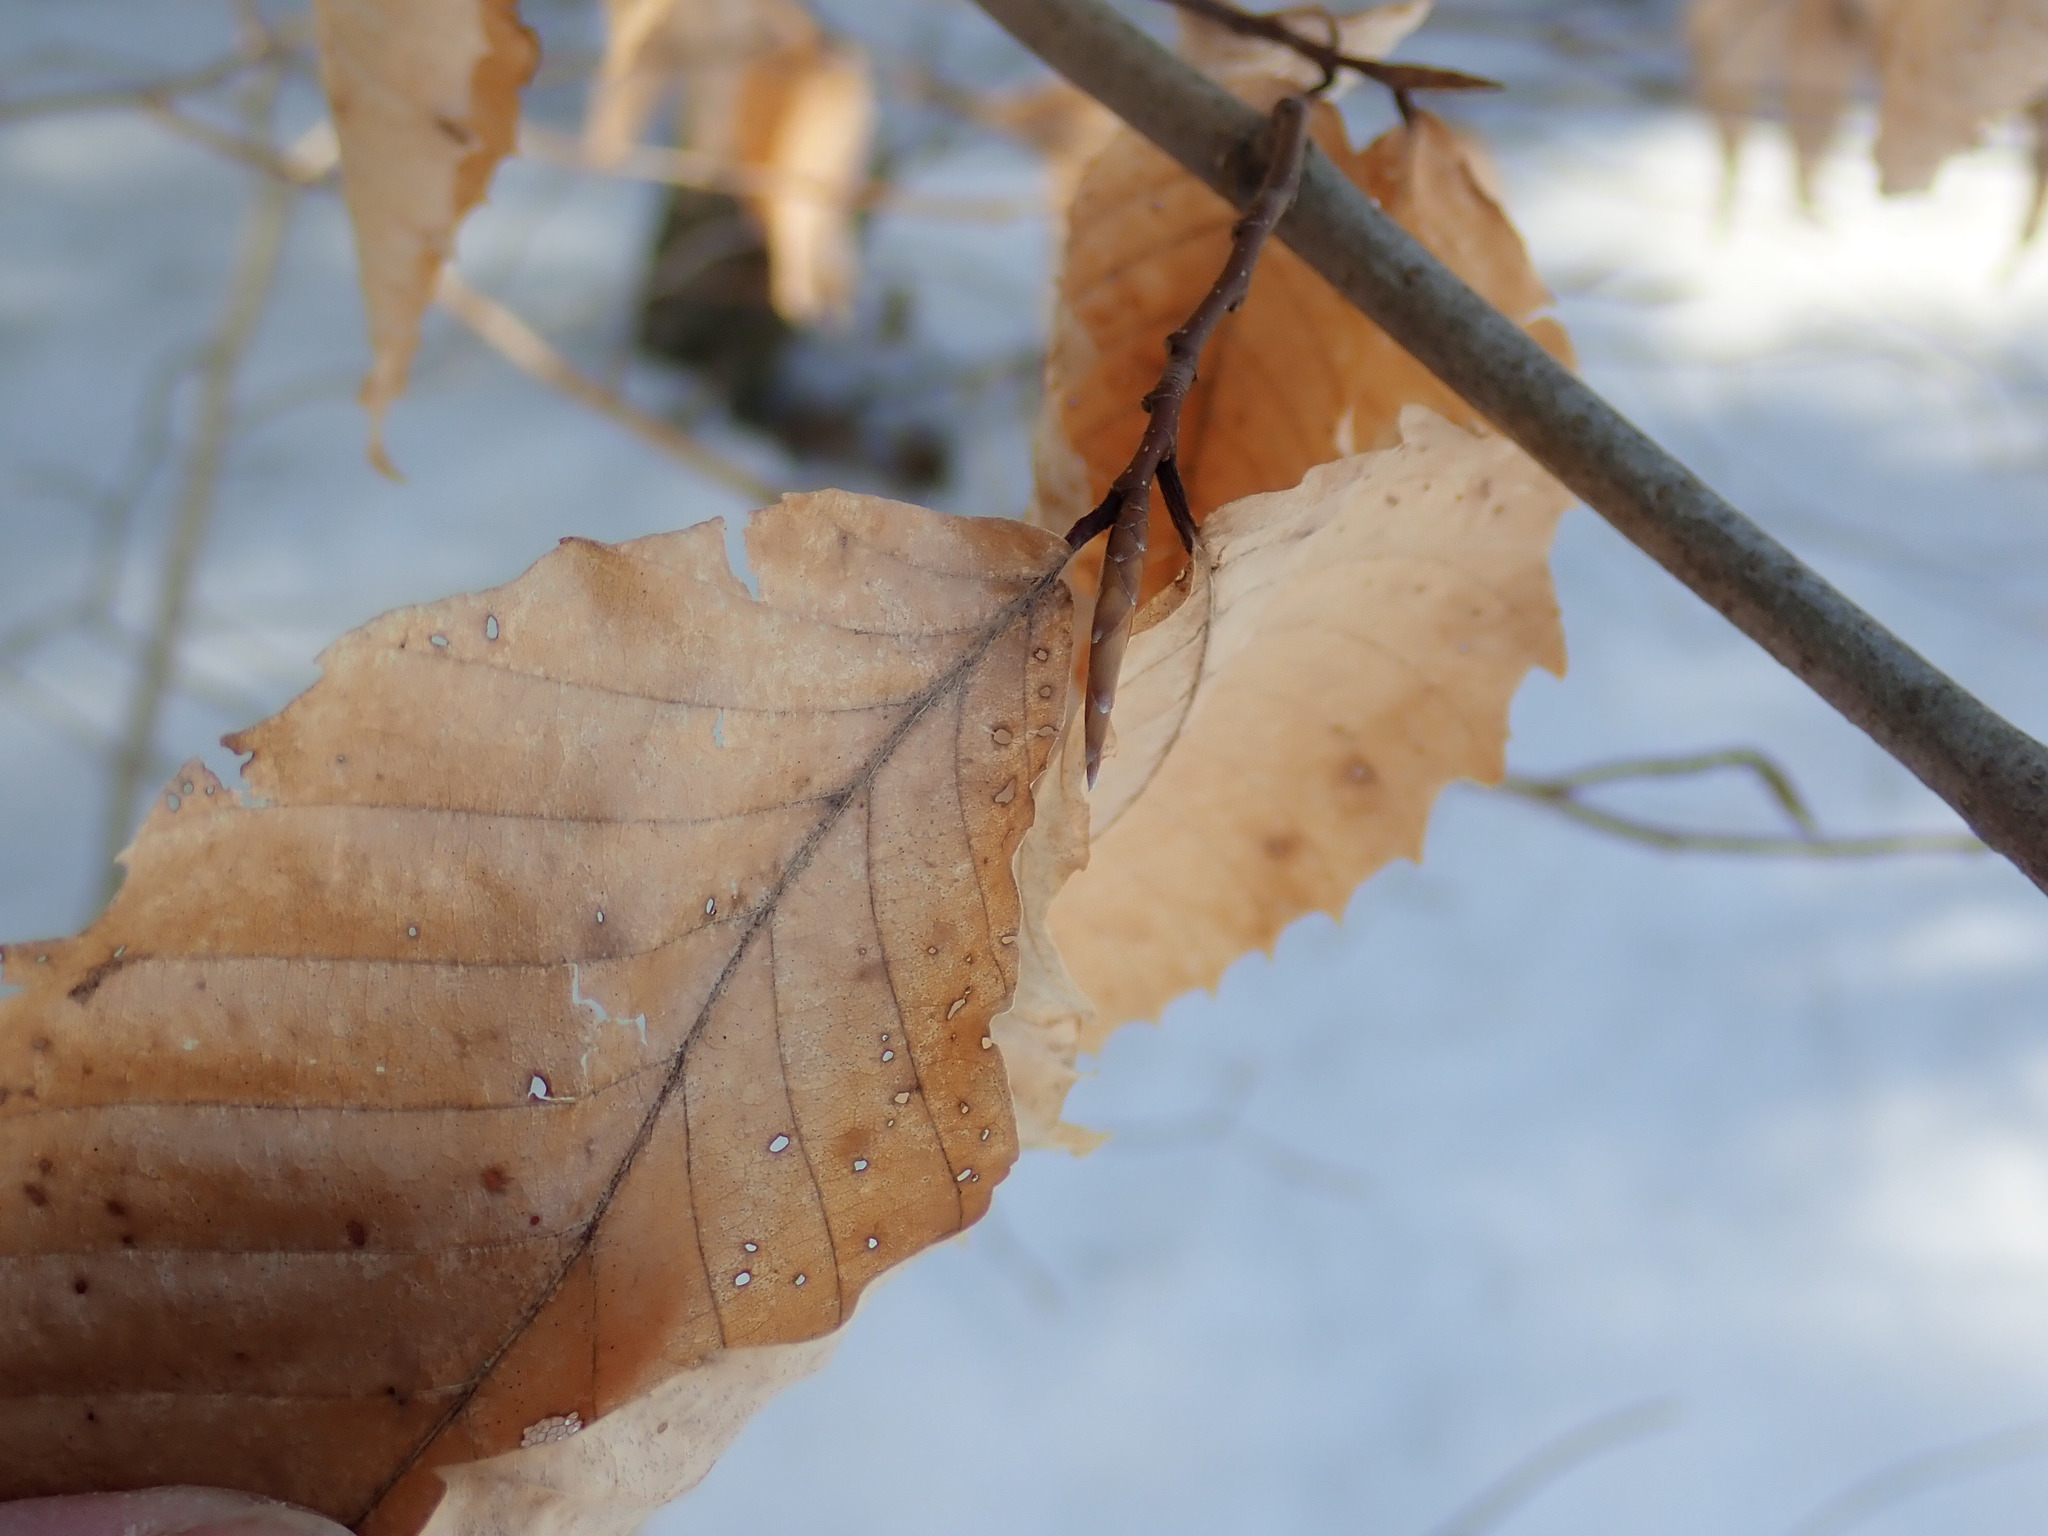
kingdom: Plantae
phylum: Tracheophyta
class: Magnoliopsida
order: Fagales
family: Fagaceae
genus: Fagus
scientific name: Fagus grandifolia
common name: American beech
